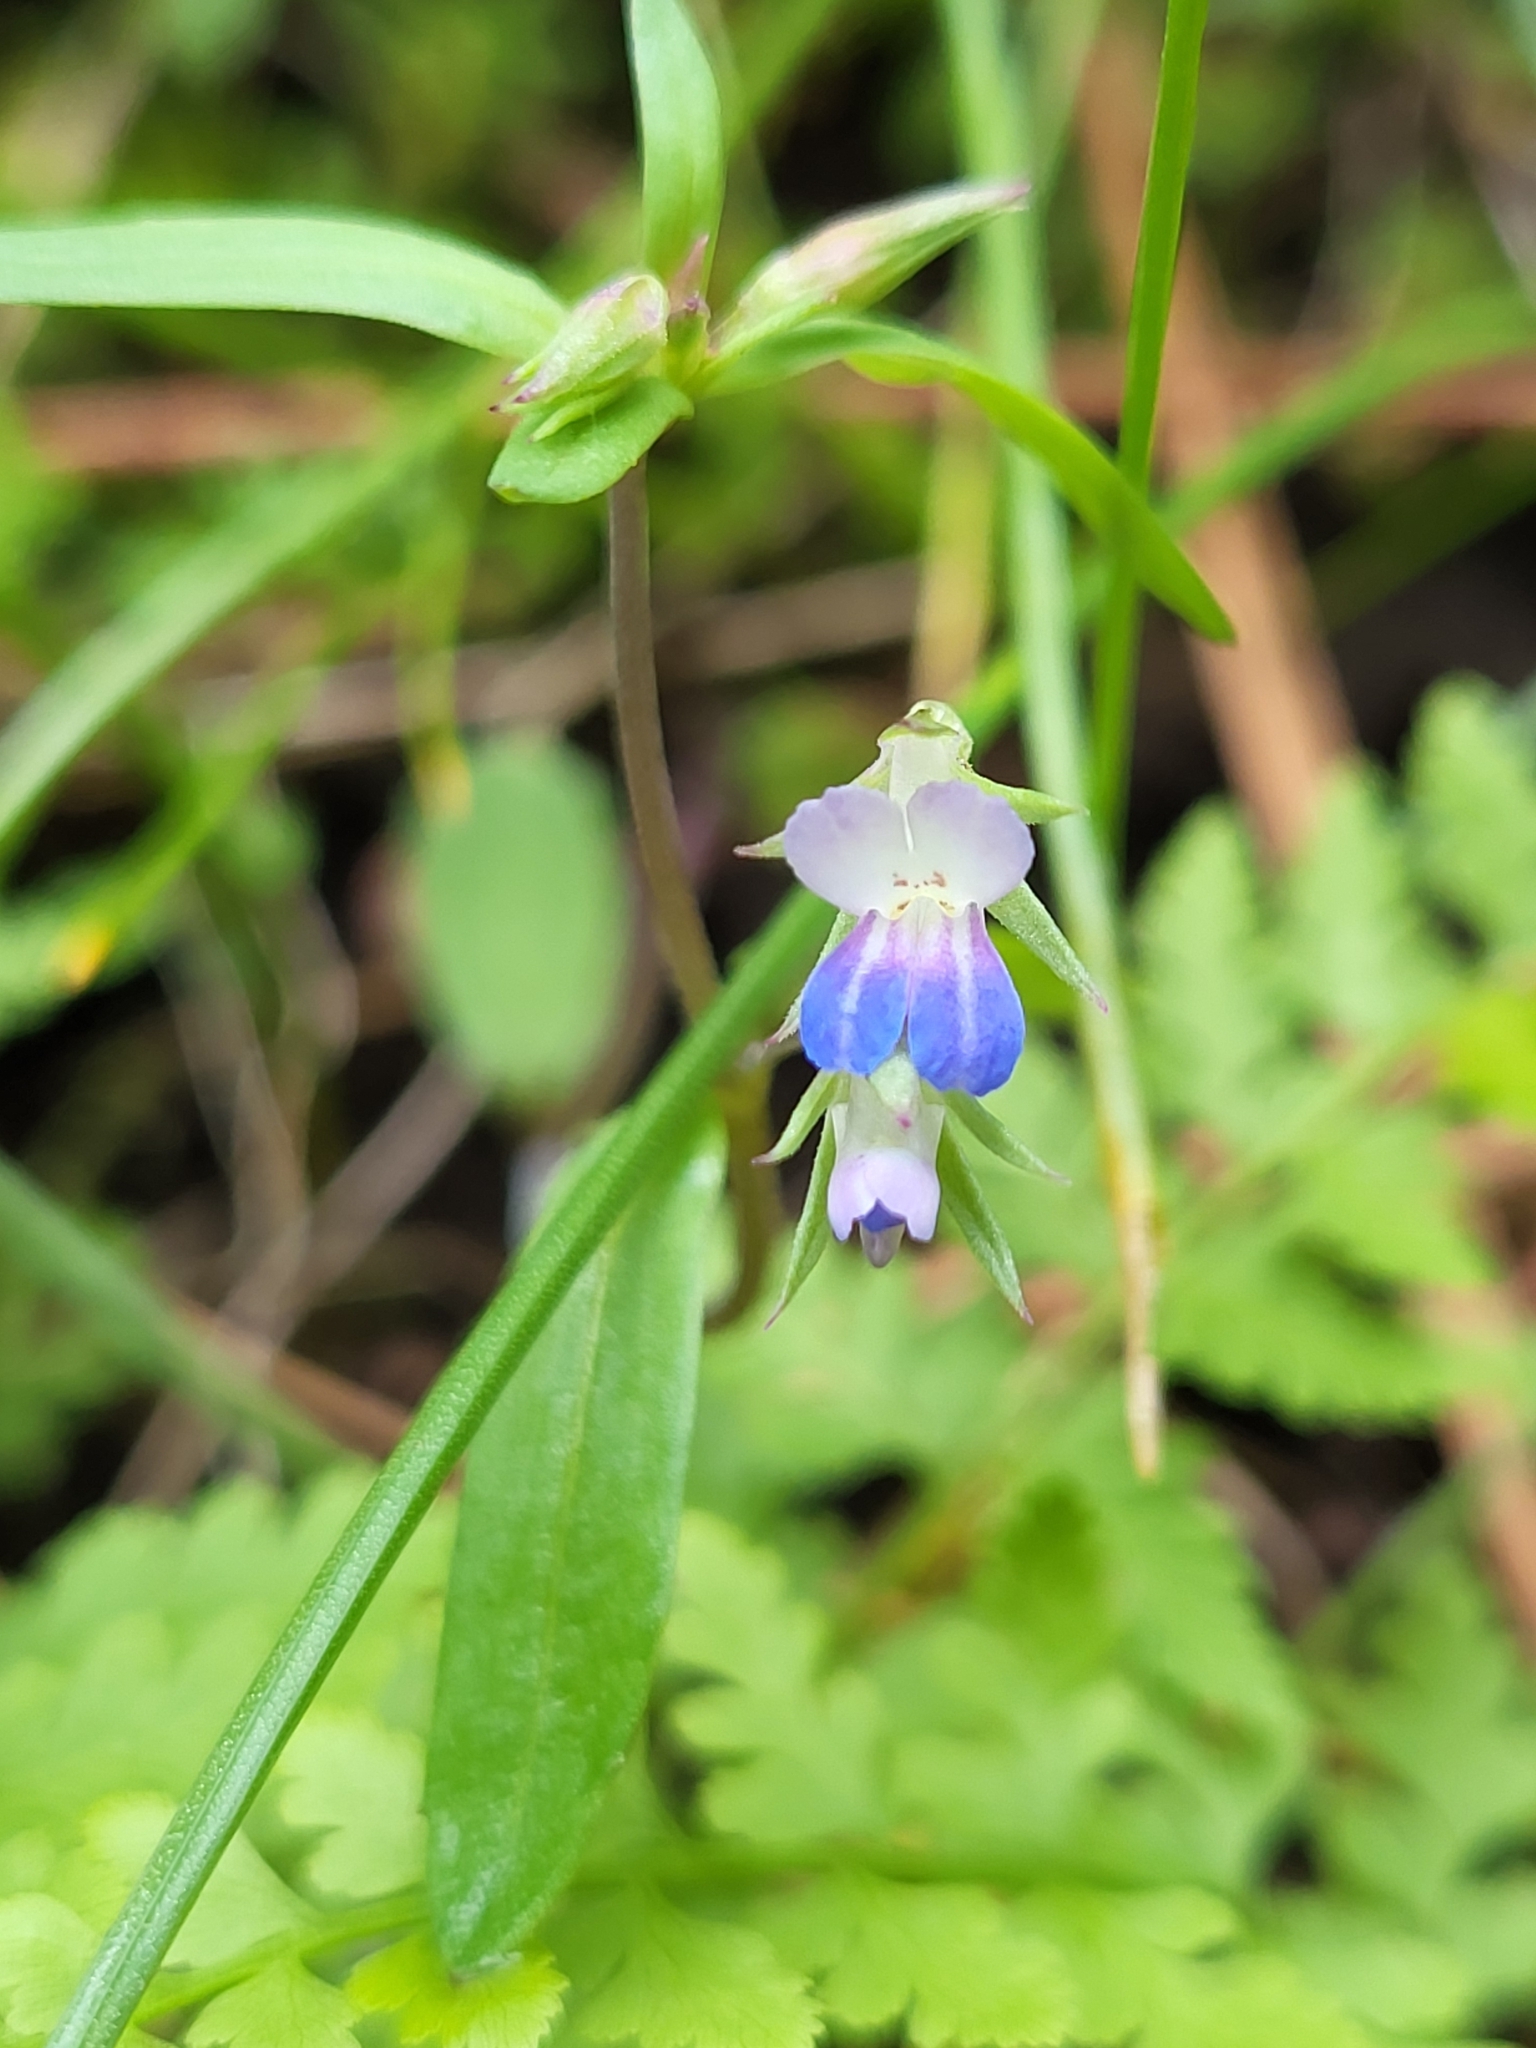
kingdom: Plantae
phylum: Tracheophyta
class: Magnoliopsida
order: Lamiales
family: Plantaginaceae
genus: Collinsia
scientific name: Collinsia parviflora
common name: Blue-lips
